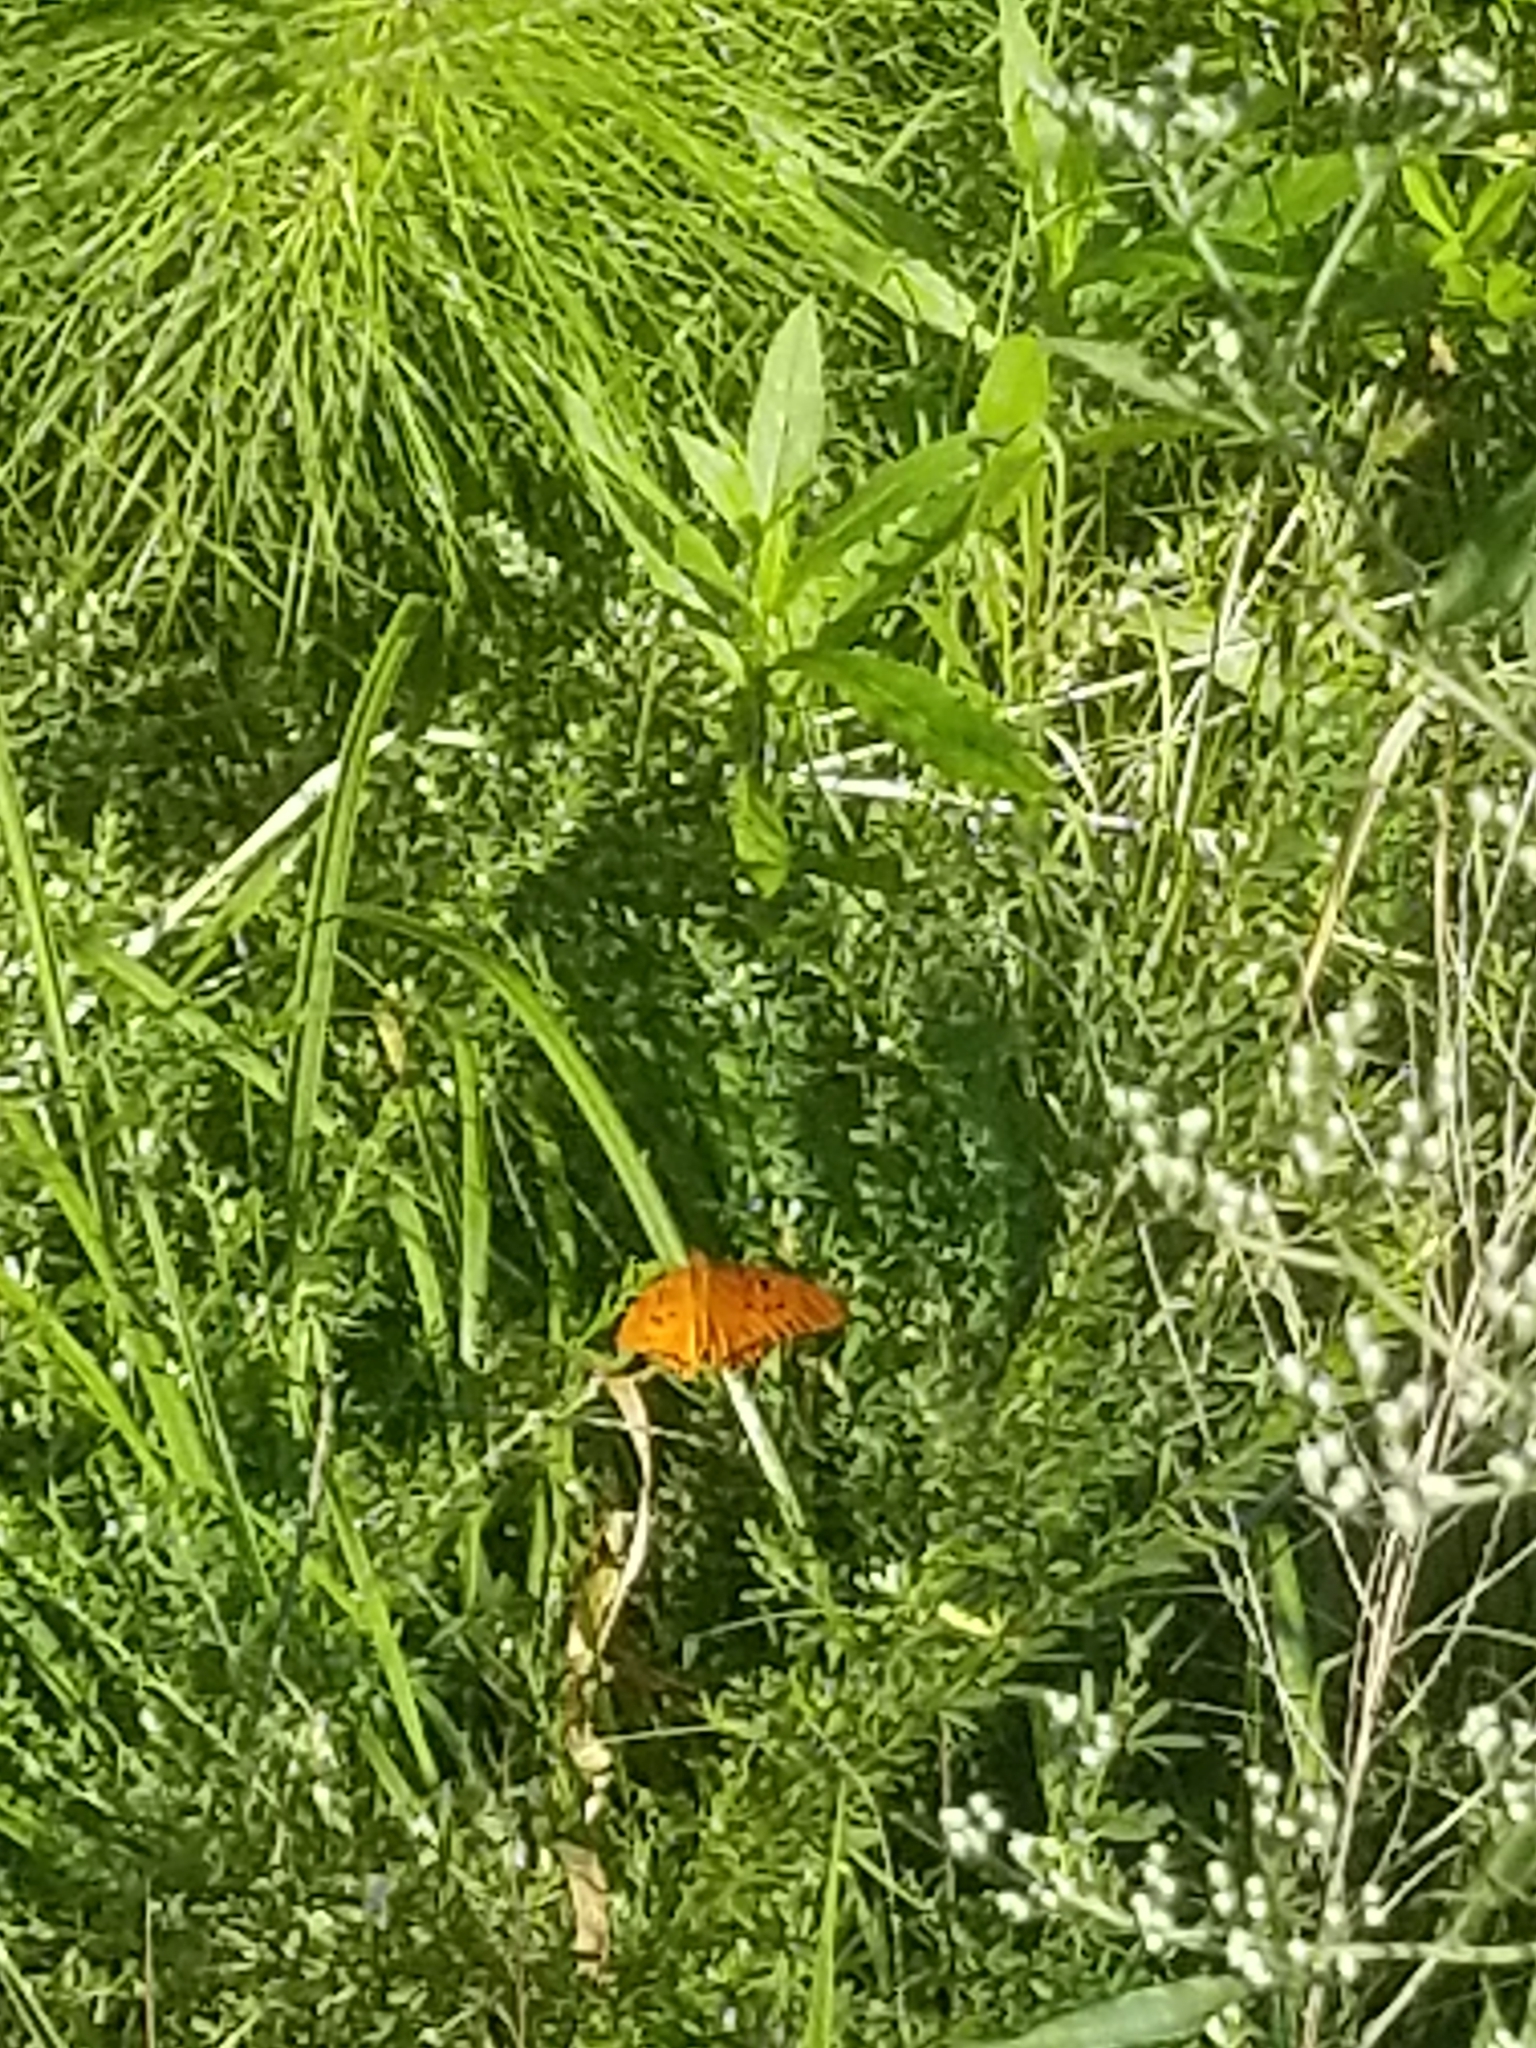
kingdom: Animalia
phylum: Arthropoda
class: Insecta
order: Lepidoptera
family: Nymphalidae
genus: Dione
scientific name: Dione vanillae
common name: Gulf fritillary
